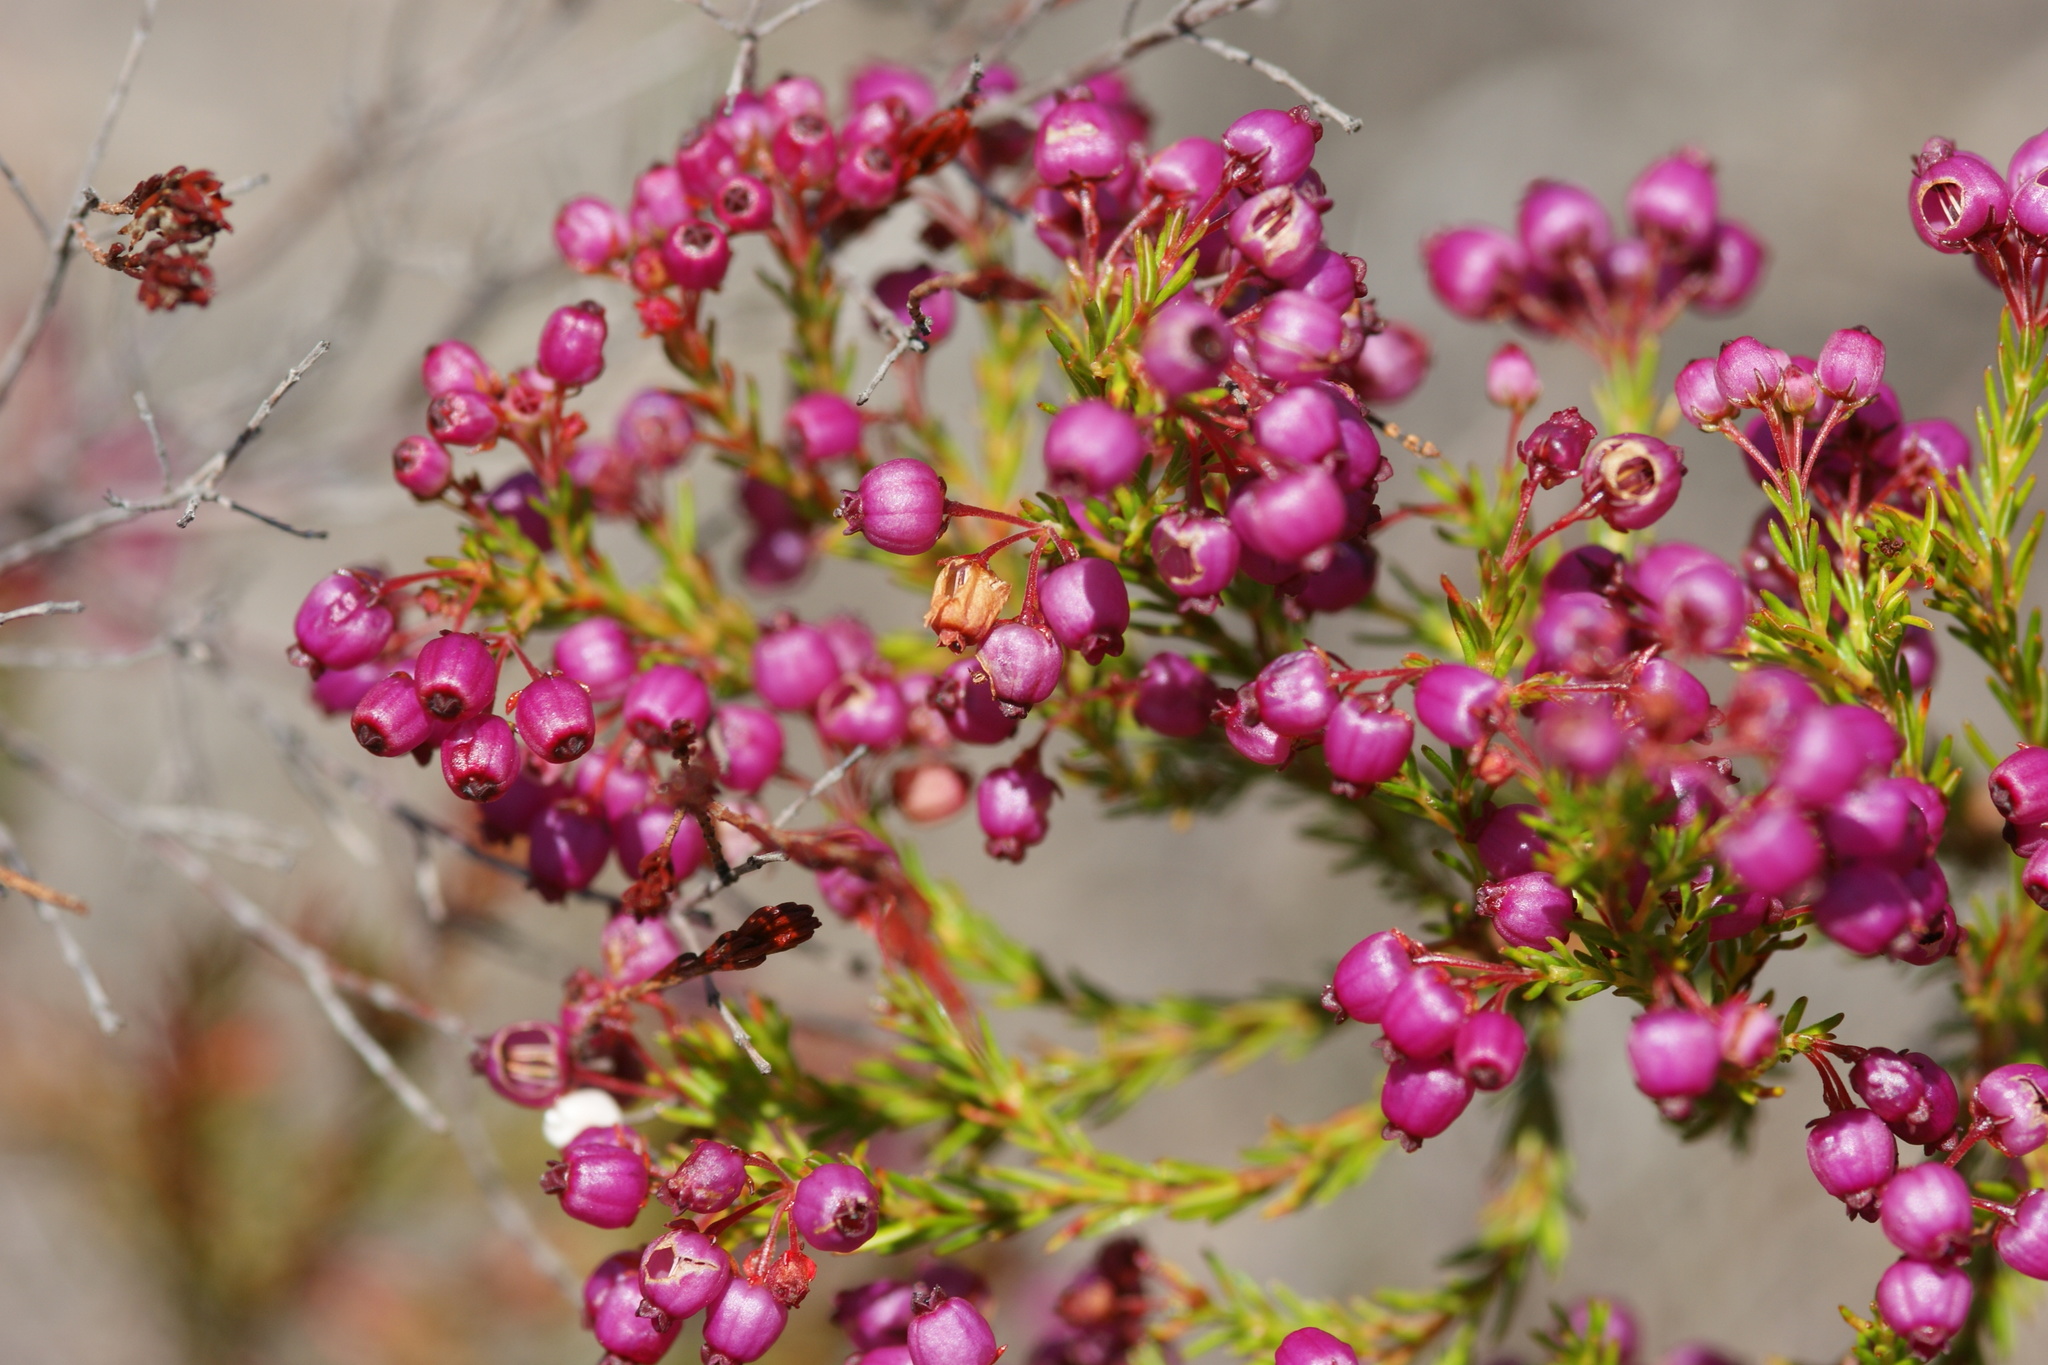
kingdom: Plantae
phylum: Tracheophyta
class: Magnoliopsida
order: Ericales
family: Ericaceae
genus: Erica
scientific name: Erica multumbellifera
